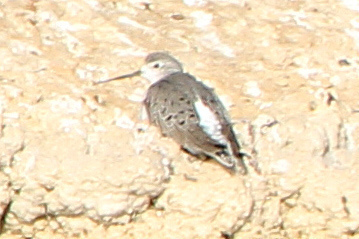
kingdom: Animalia
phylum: Chordata
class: Aves
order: Charadriiformes
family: Scolopacidae
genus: Tringa
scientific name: Tringa stagnatilis
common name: Marsh sandpiper
